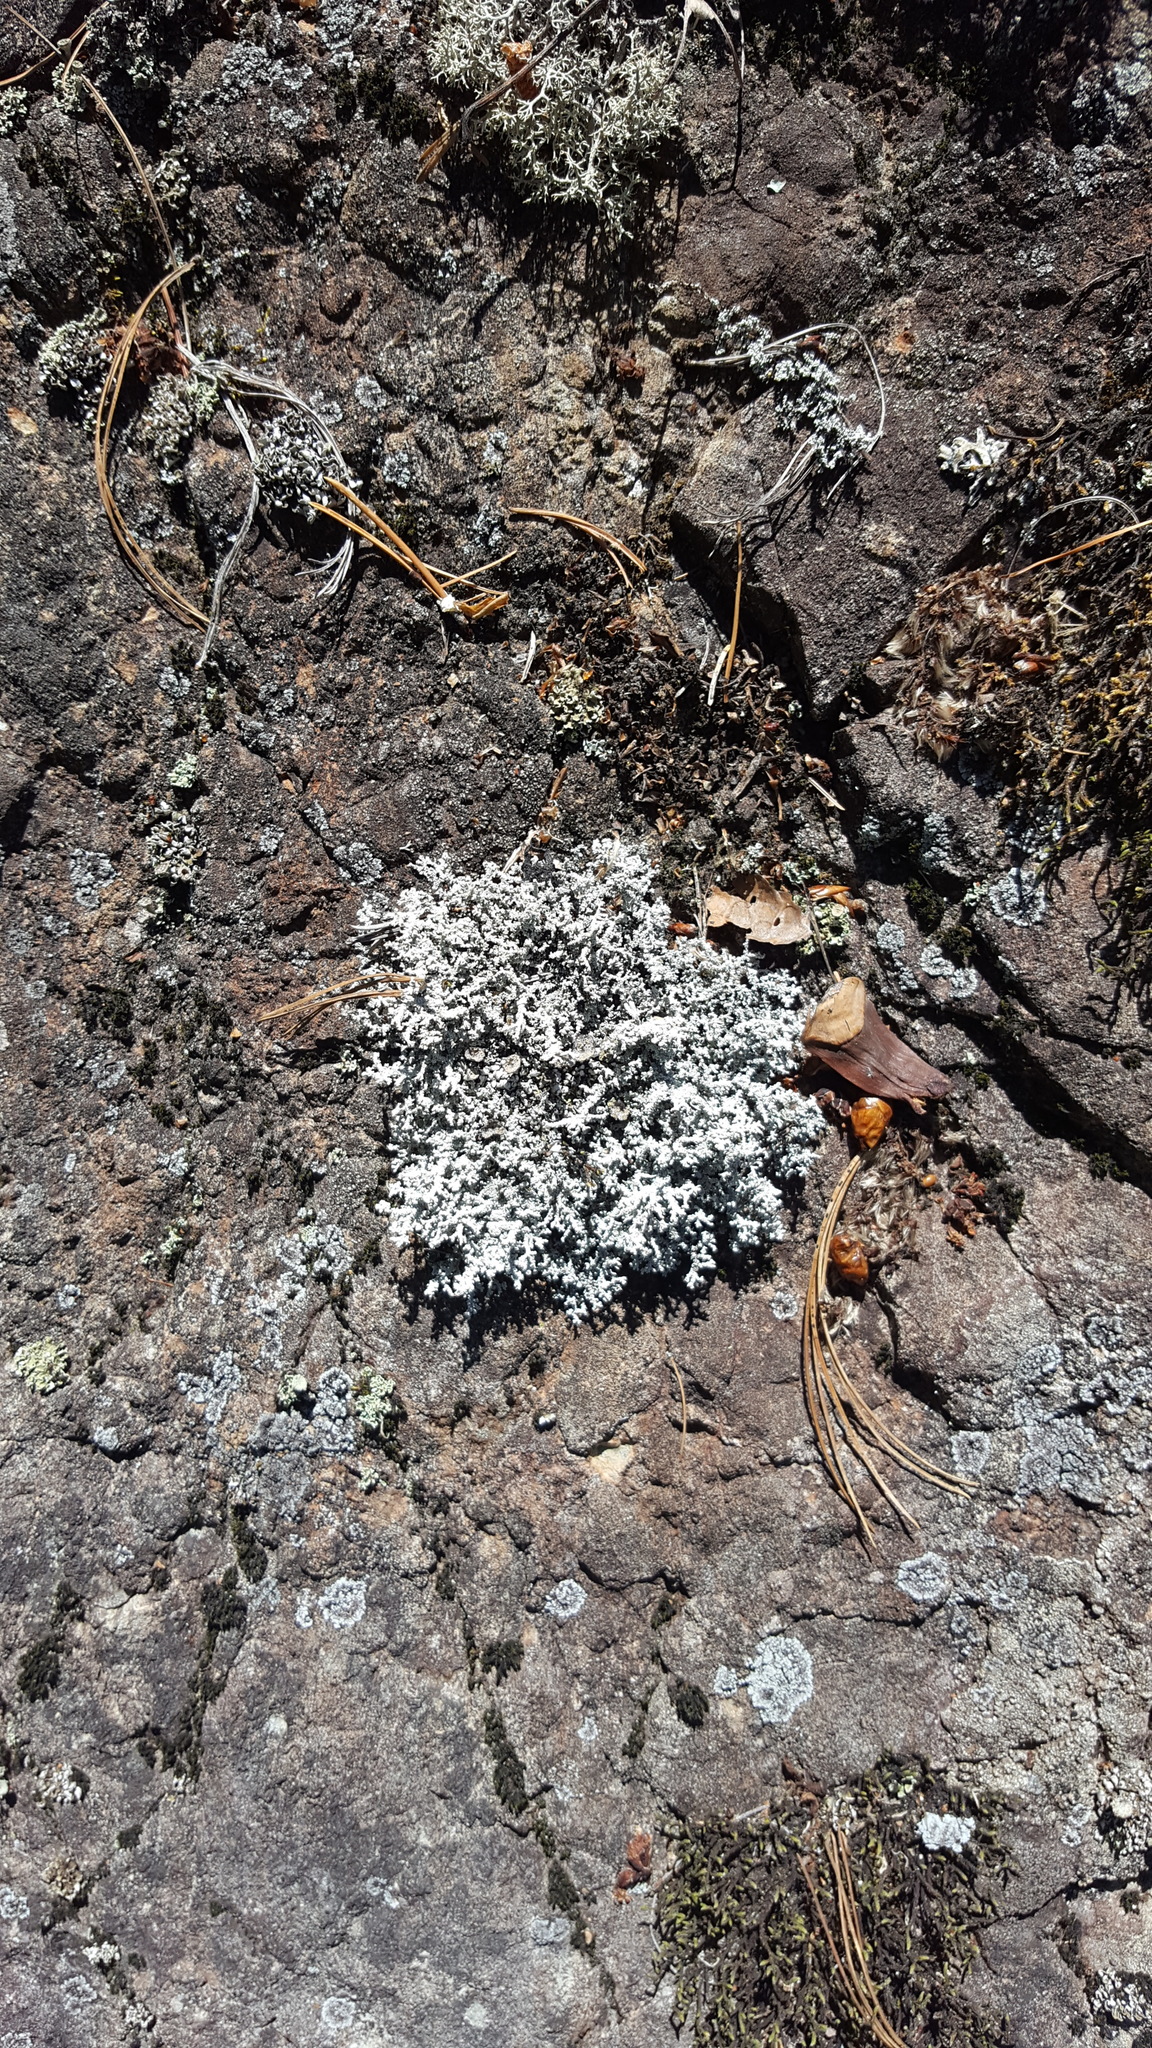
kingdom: Fungi
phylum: Ascomycota
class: Lecanoromycetes
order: Lecanorales
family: Stereocaulaceae
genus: Stereocaulon
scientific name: Stereocaulon saxatile
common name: Rock foam
